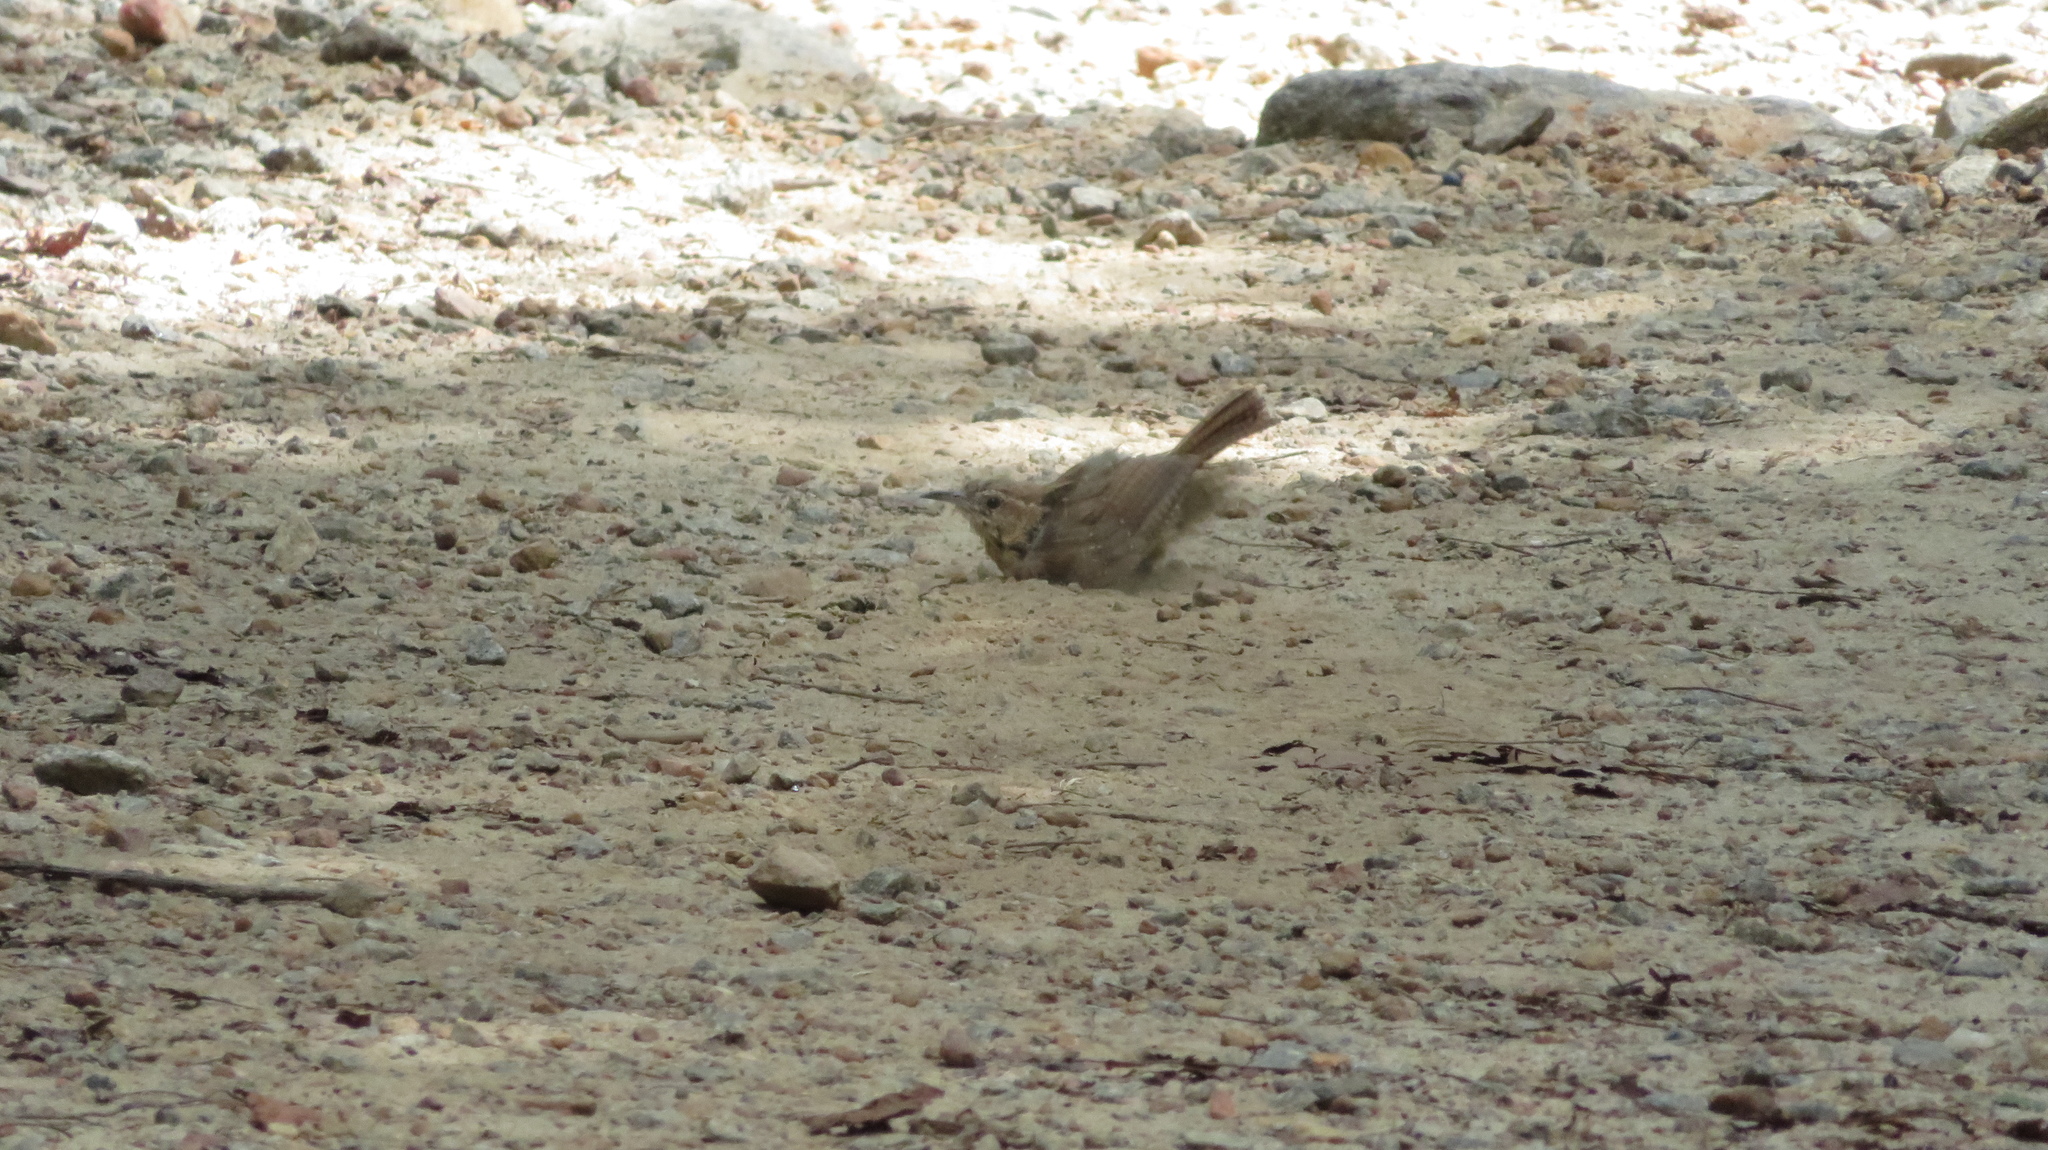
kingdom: Animalia
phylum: Chordata
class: Aves
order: Passeriformes
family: Troglodytidae
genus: Thryothorus
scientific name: Thryothorus ludovicianus
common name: Carolina wren
